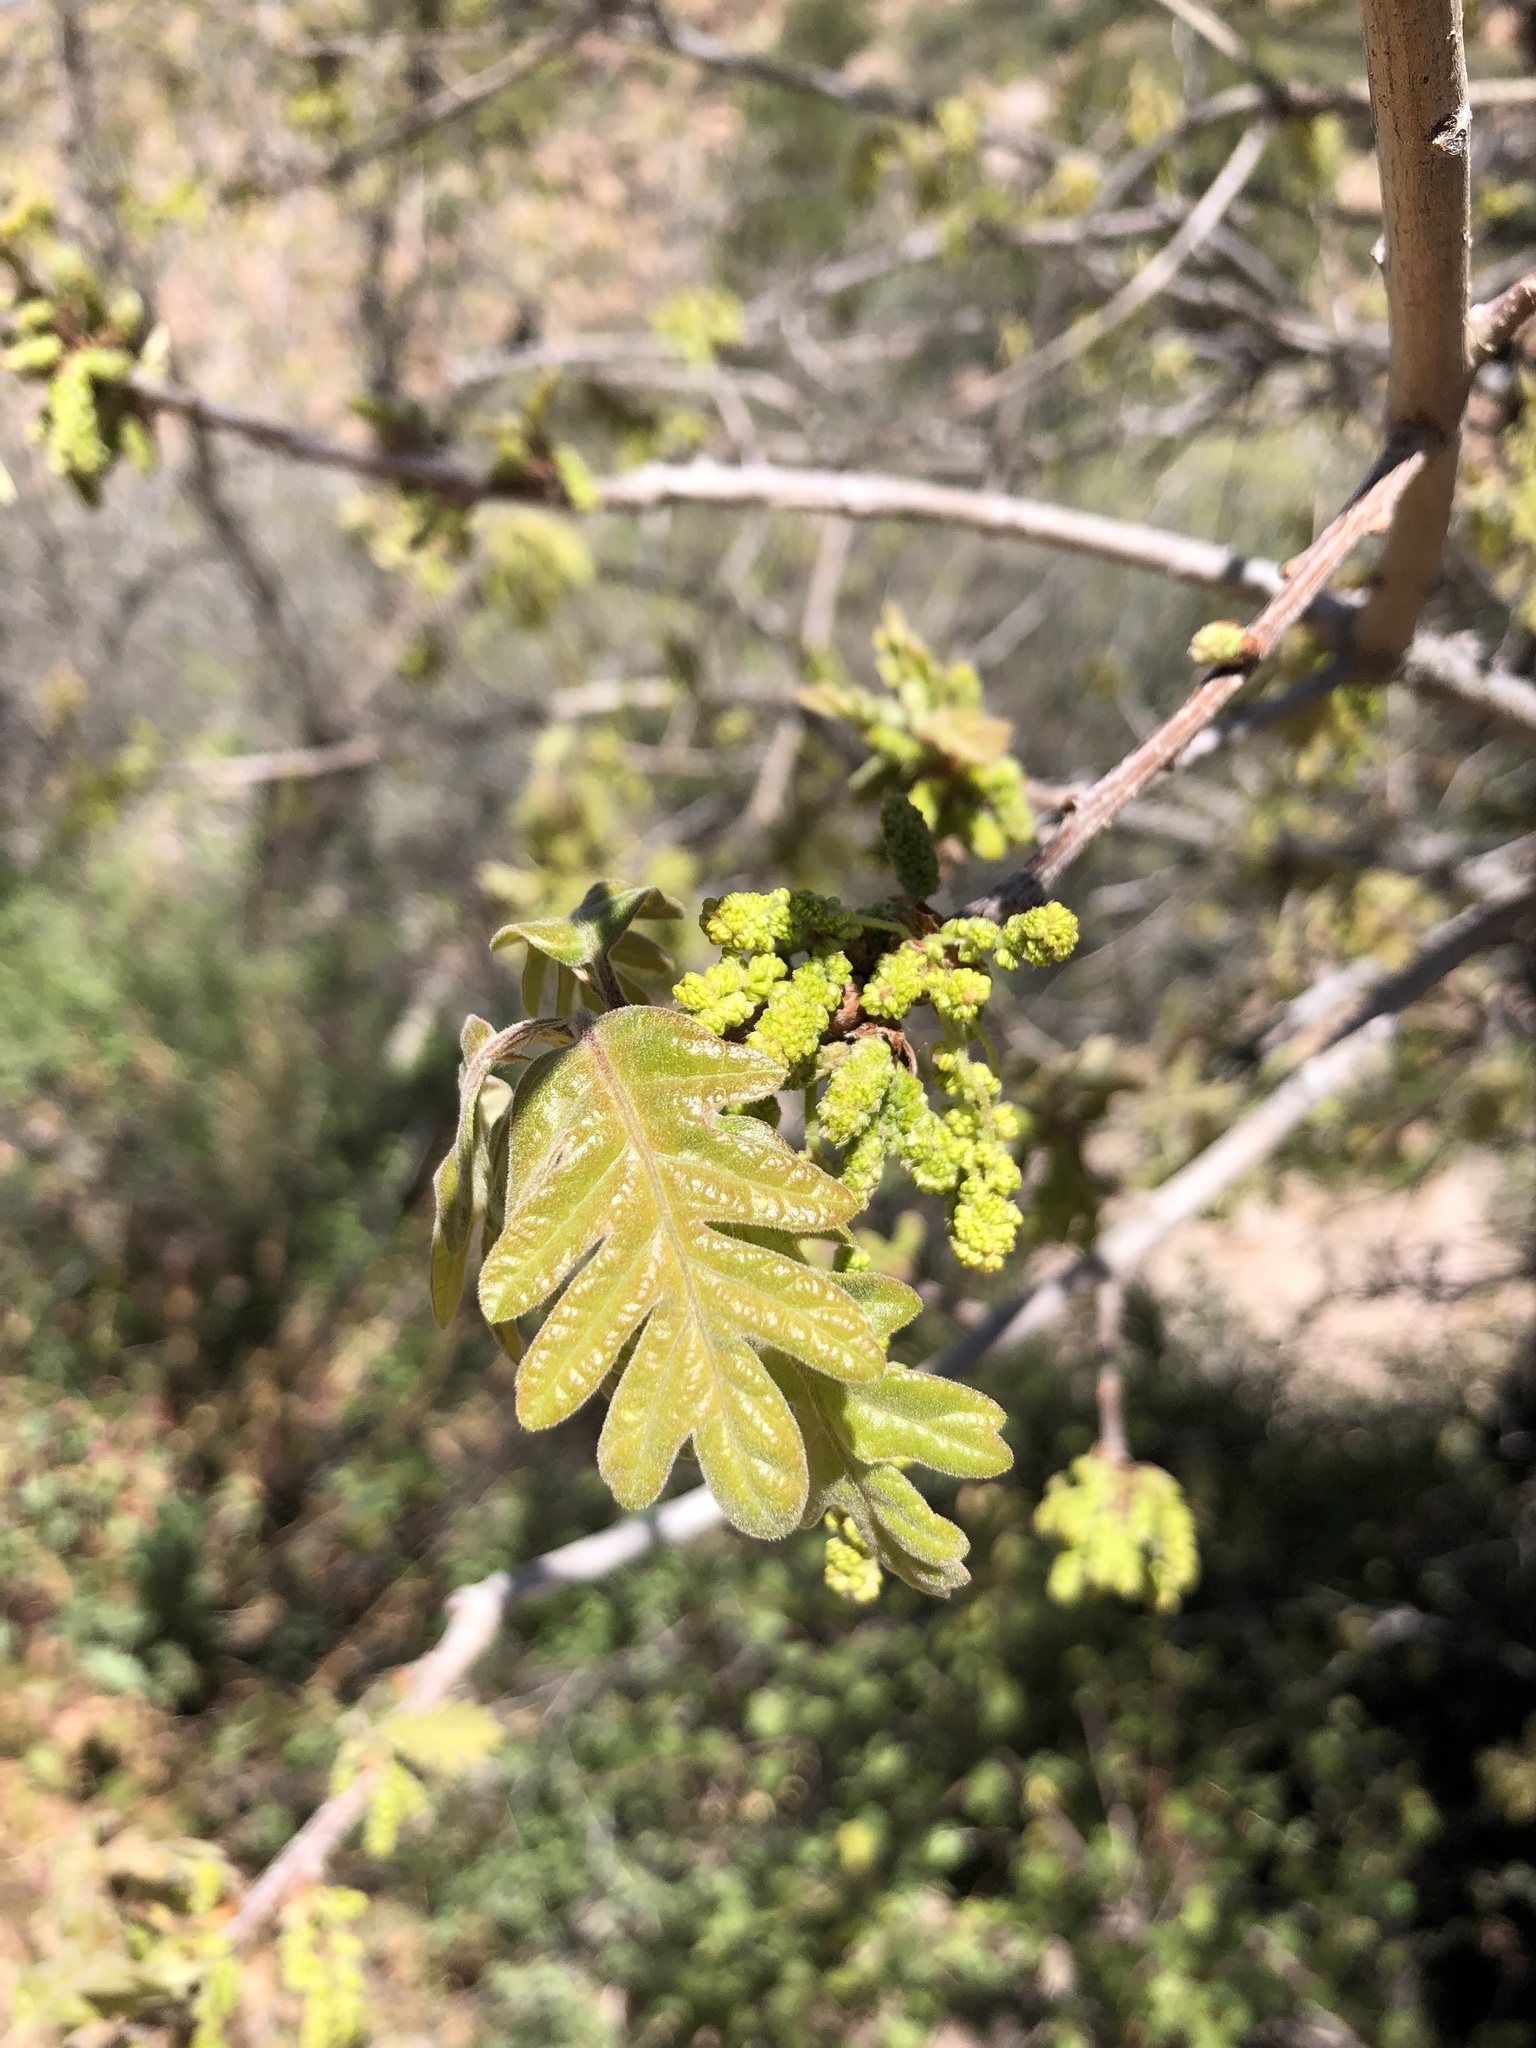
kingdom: Plantae
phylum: Tracheophyta
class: Magnoliopsida
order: Fagales
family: Fagaceae
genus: Quercus
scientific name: Quercus gambelii
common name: Gambel oak
